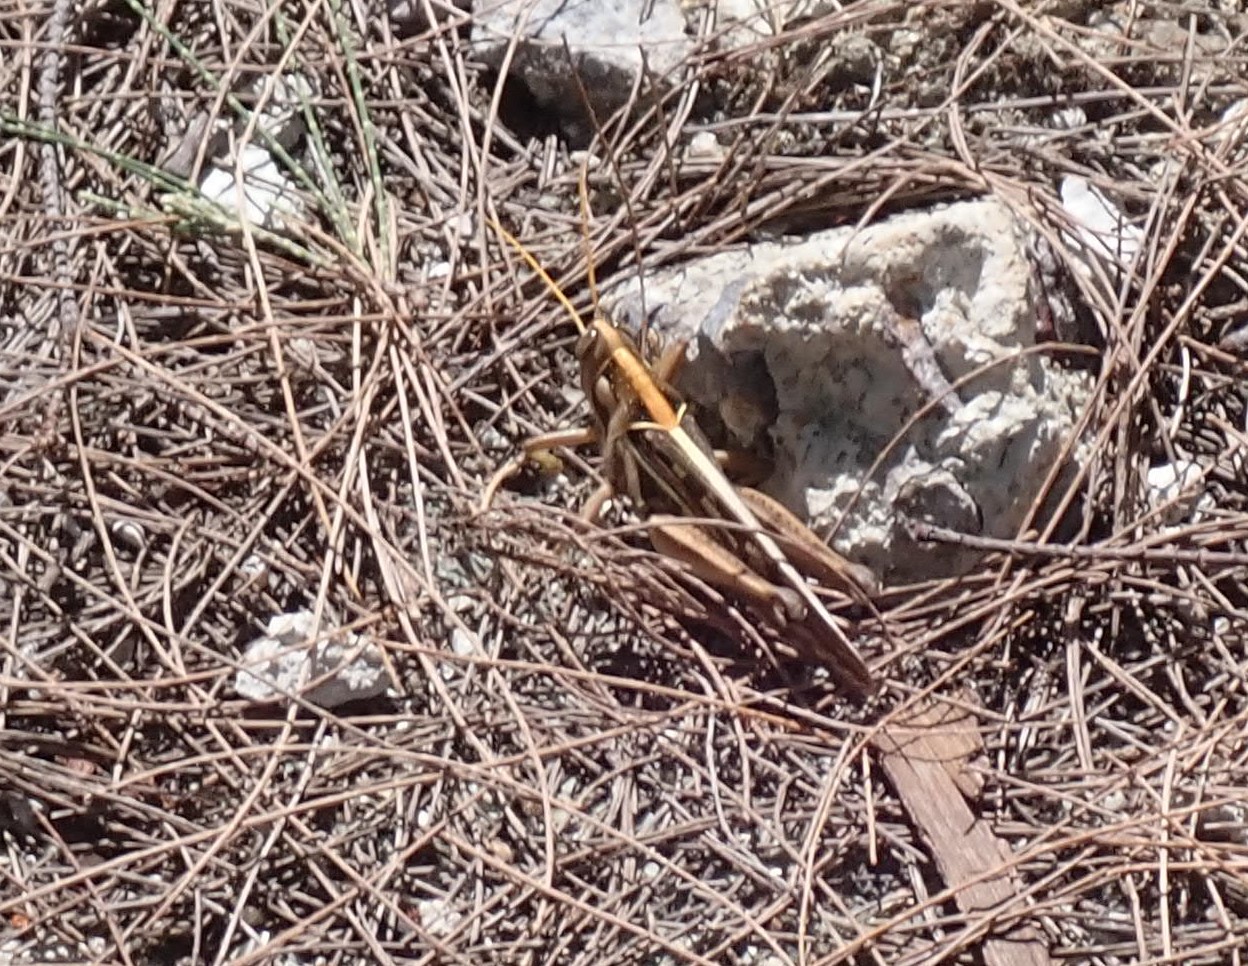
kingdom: Animalia
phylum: Arthropoda
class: Insecta
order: Orthoptera
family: Acrididae
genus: Cyrtacanthacris
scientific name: Cyrtacanthacris tatarica
